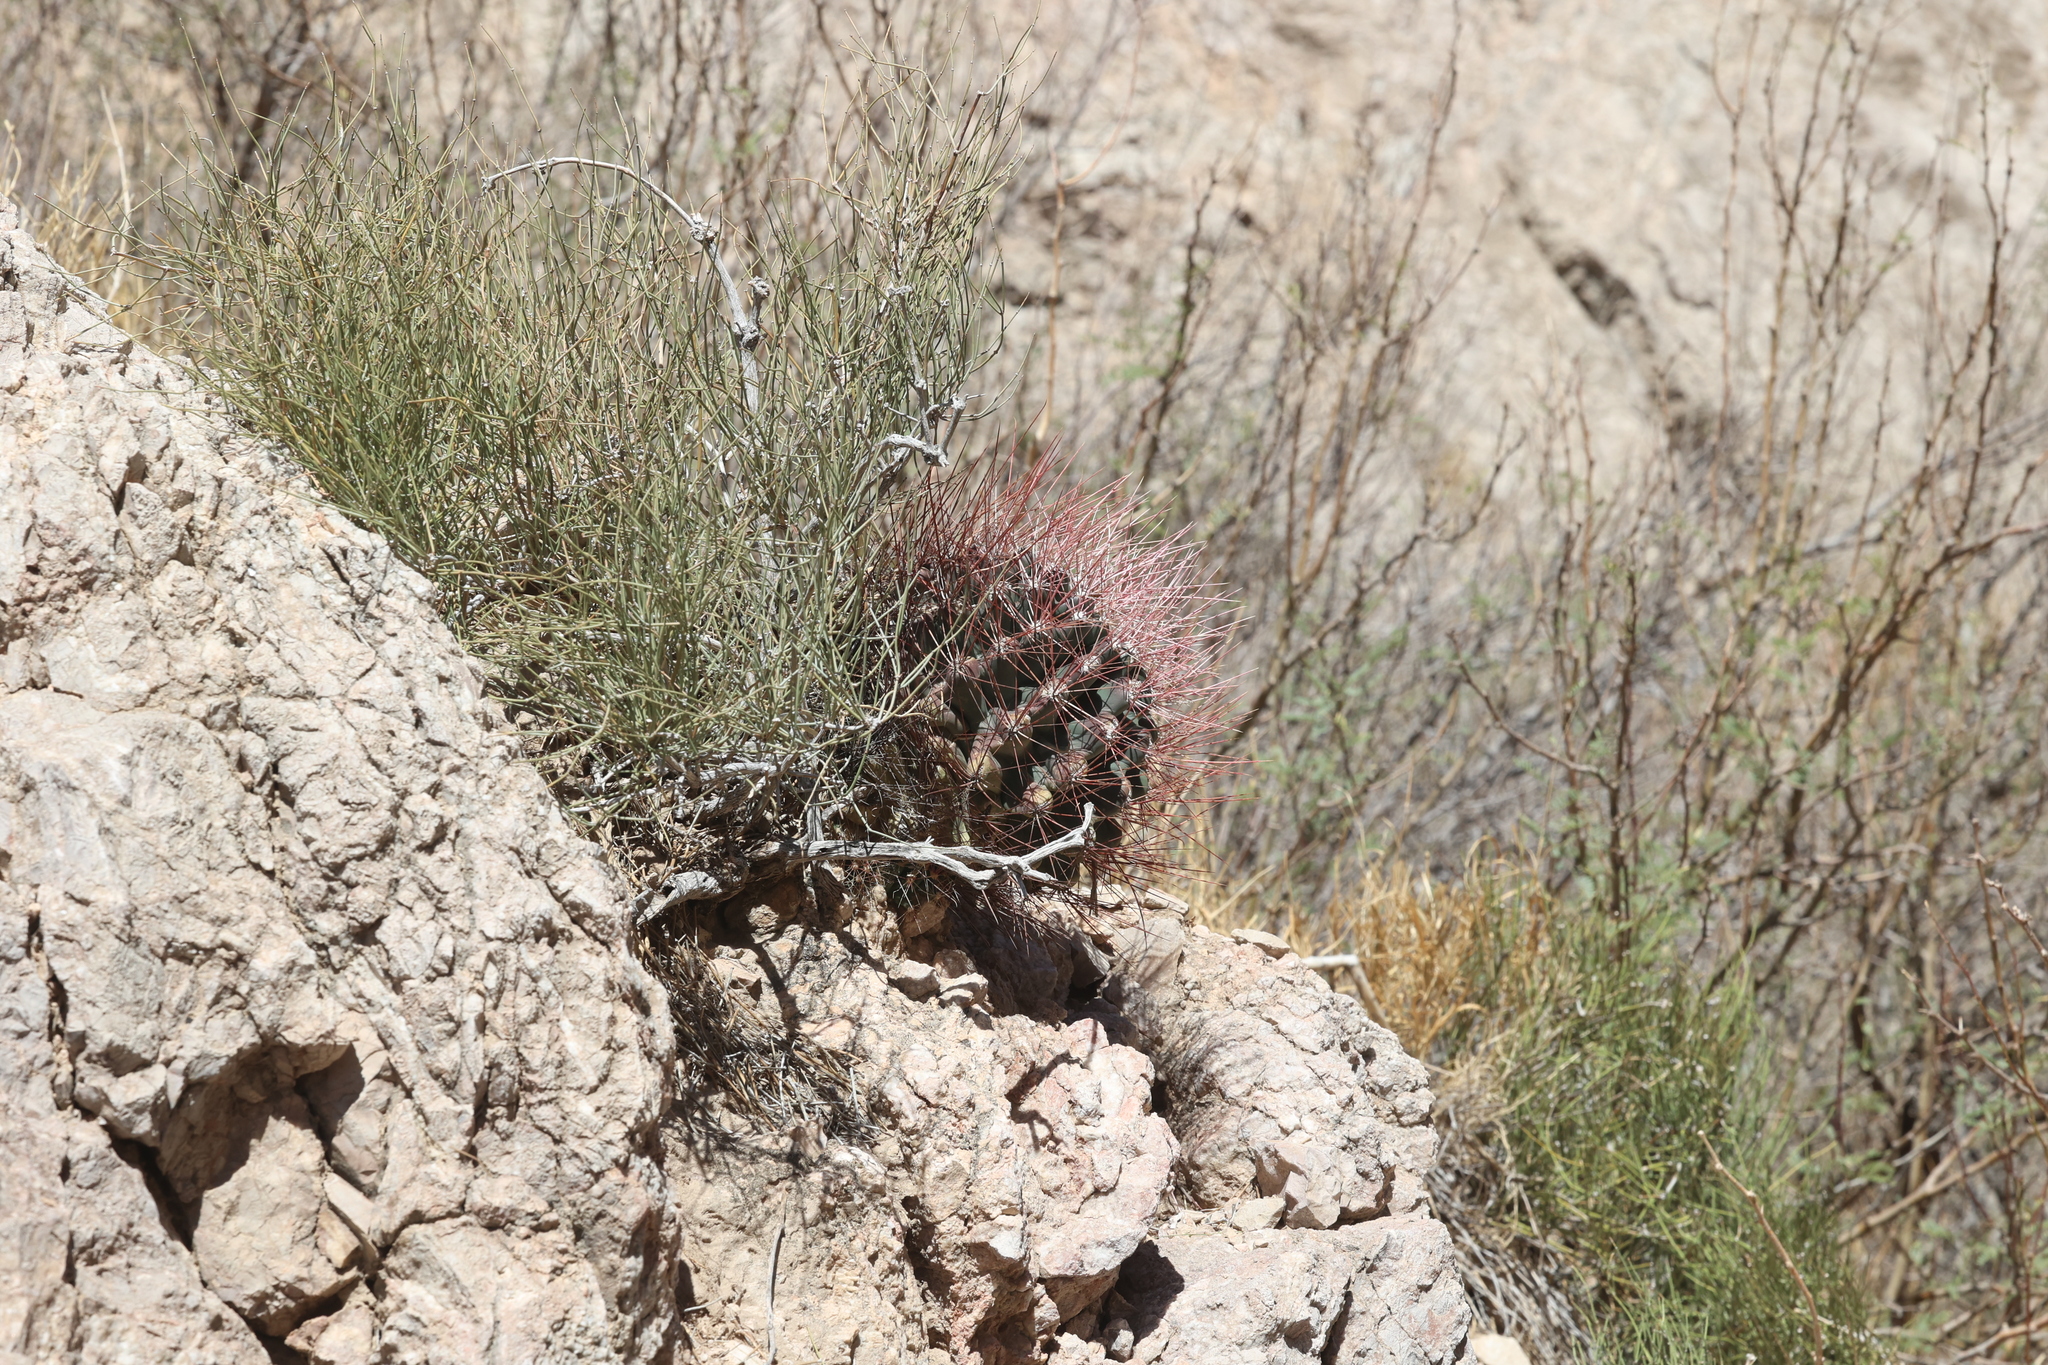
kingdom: Plantae
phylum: Tracheophyta
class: Magnoliopsida
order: Caryophyllales
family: Cactaceae
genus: Bisnaga
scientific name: Bisnaga hamatacantha
